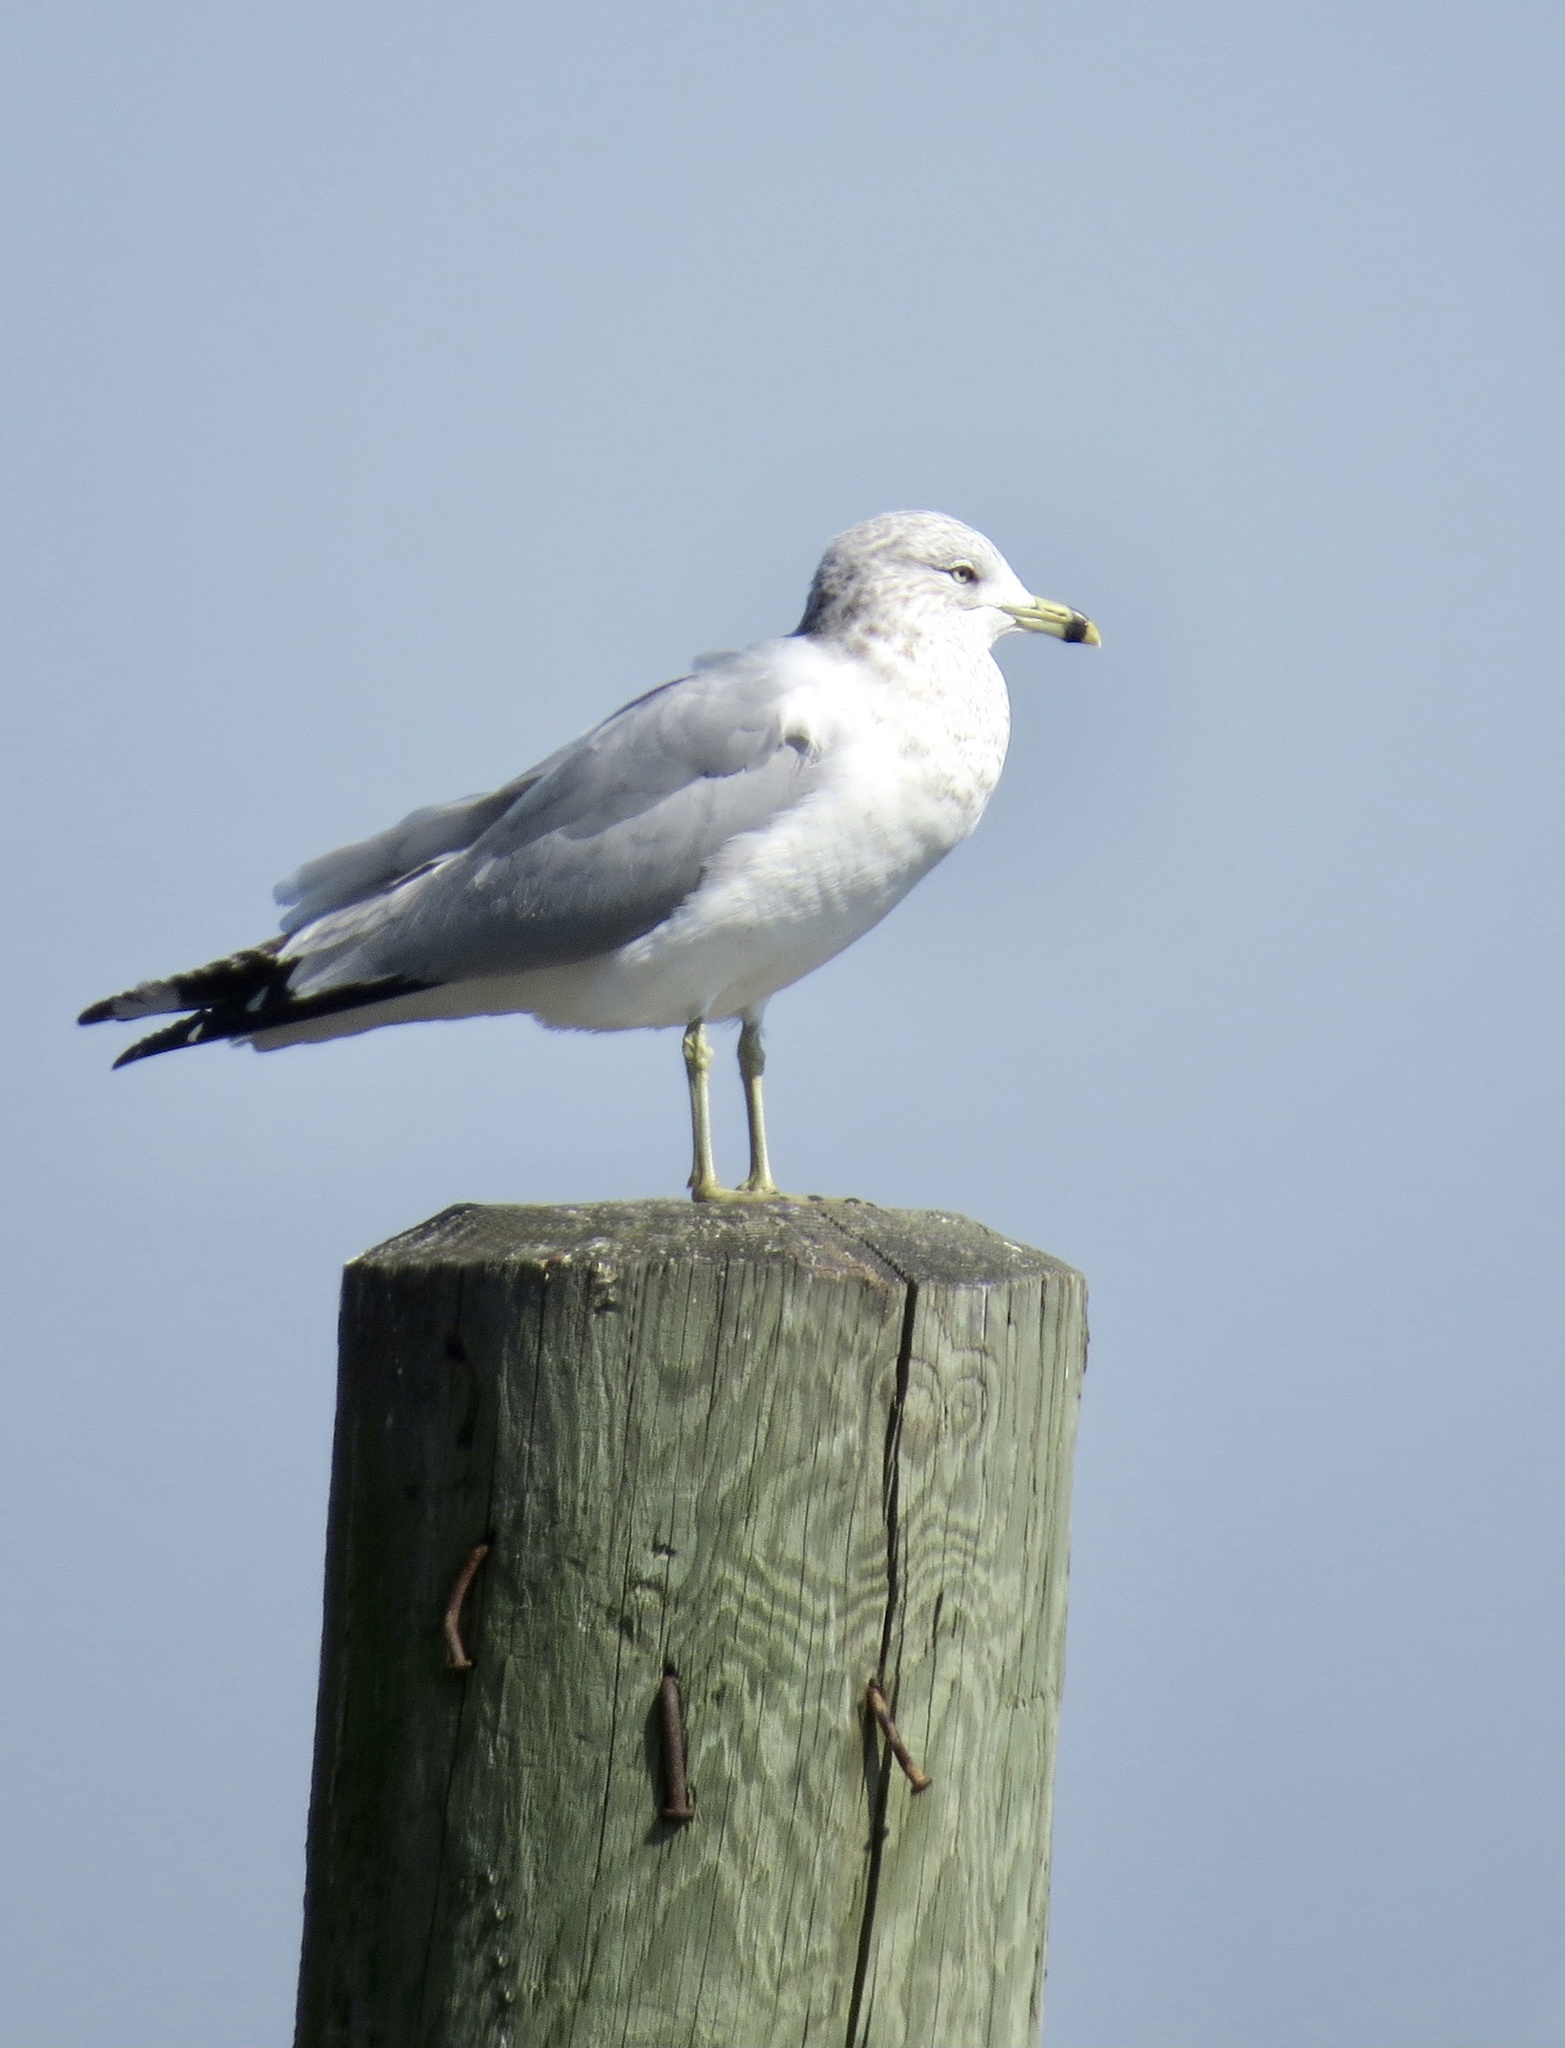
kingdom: Animalia
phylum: Chordata
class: Aves
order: Charadriiformes
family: Laridae
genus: Larus
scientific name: Larus delawarensis
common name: Ring-billed gull
